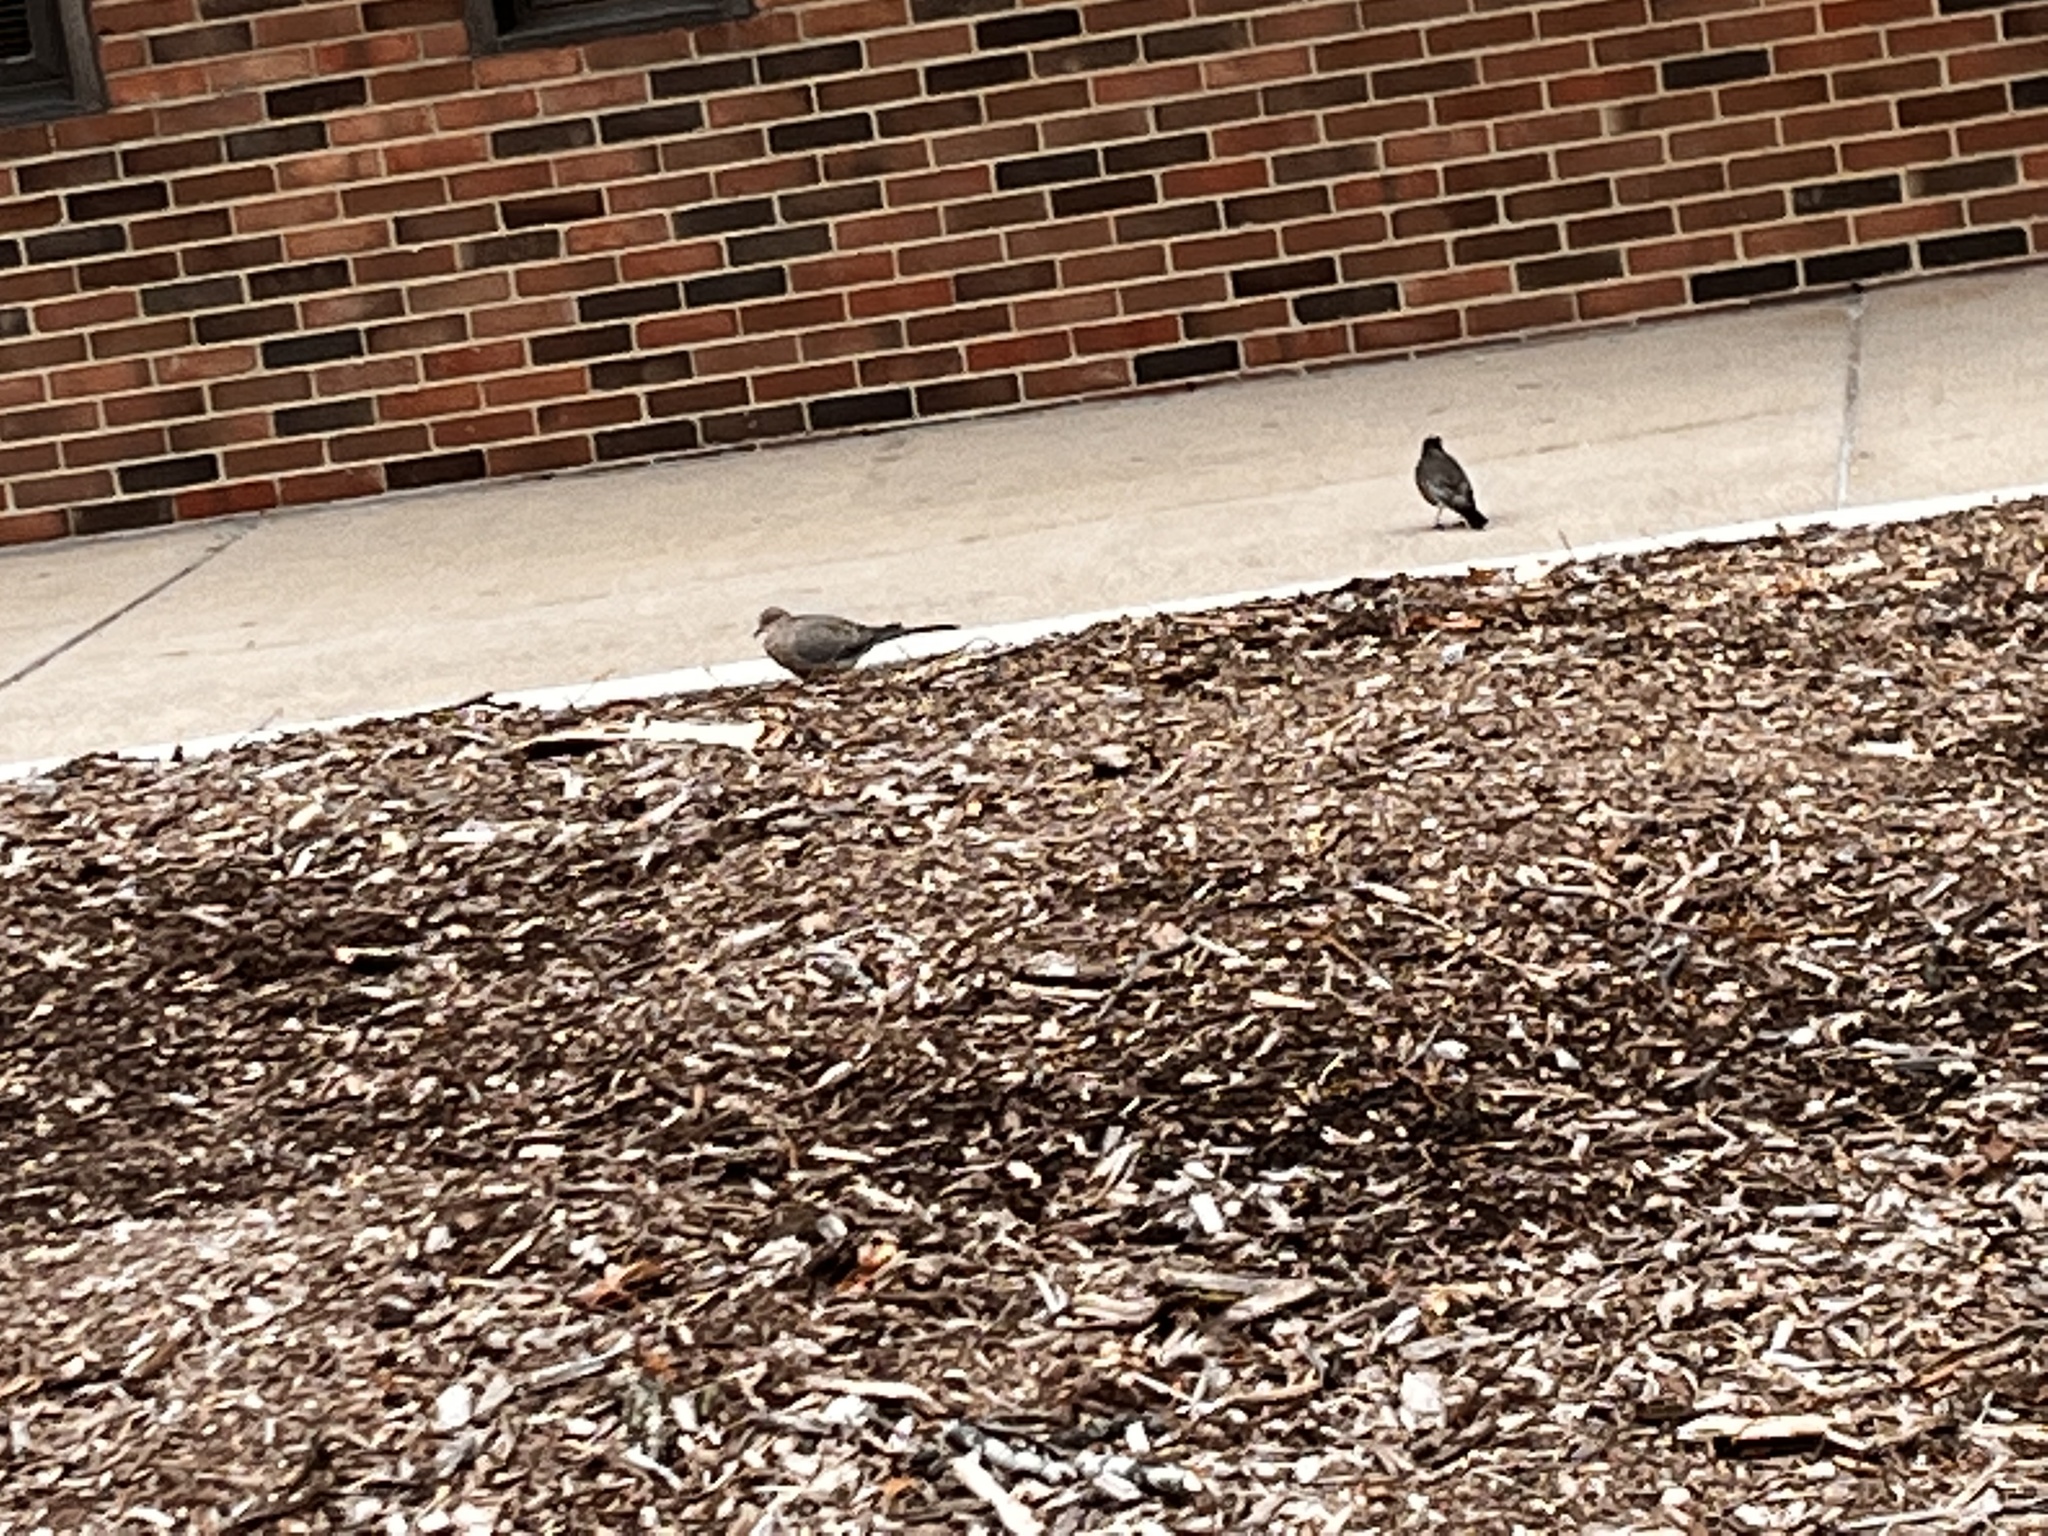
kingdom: Animalia
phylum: Chordata
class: Aves
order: Passeriformes
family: Turdidae
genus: Turdus
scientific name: Turdus migratorius
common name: American robin
